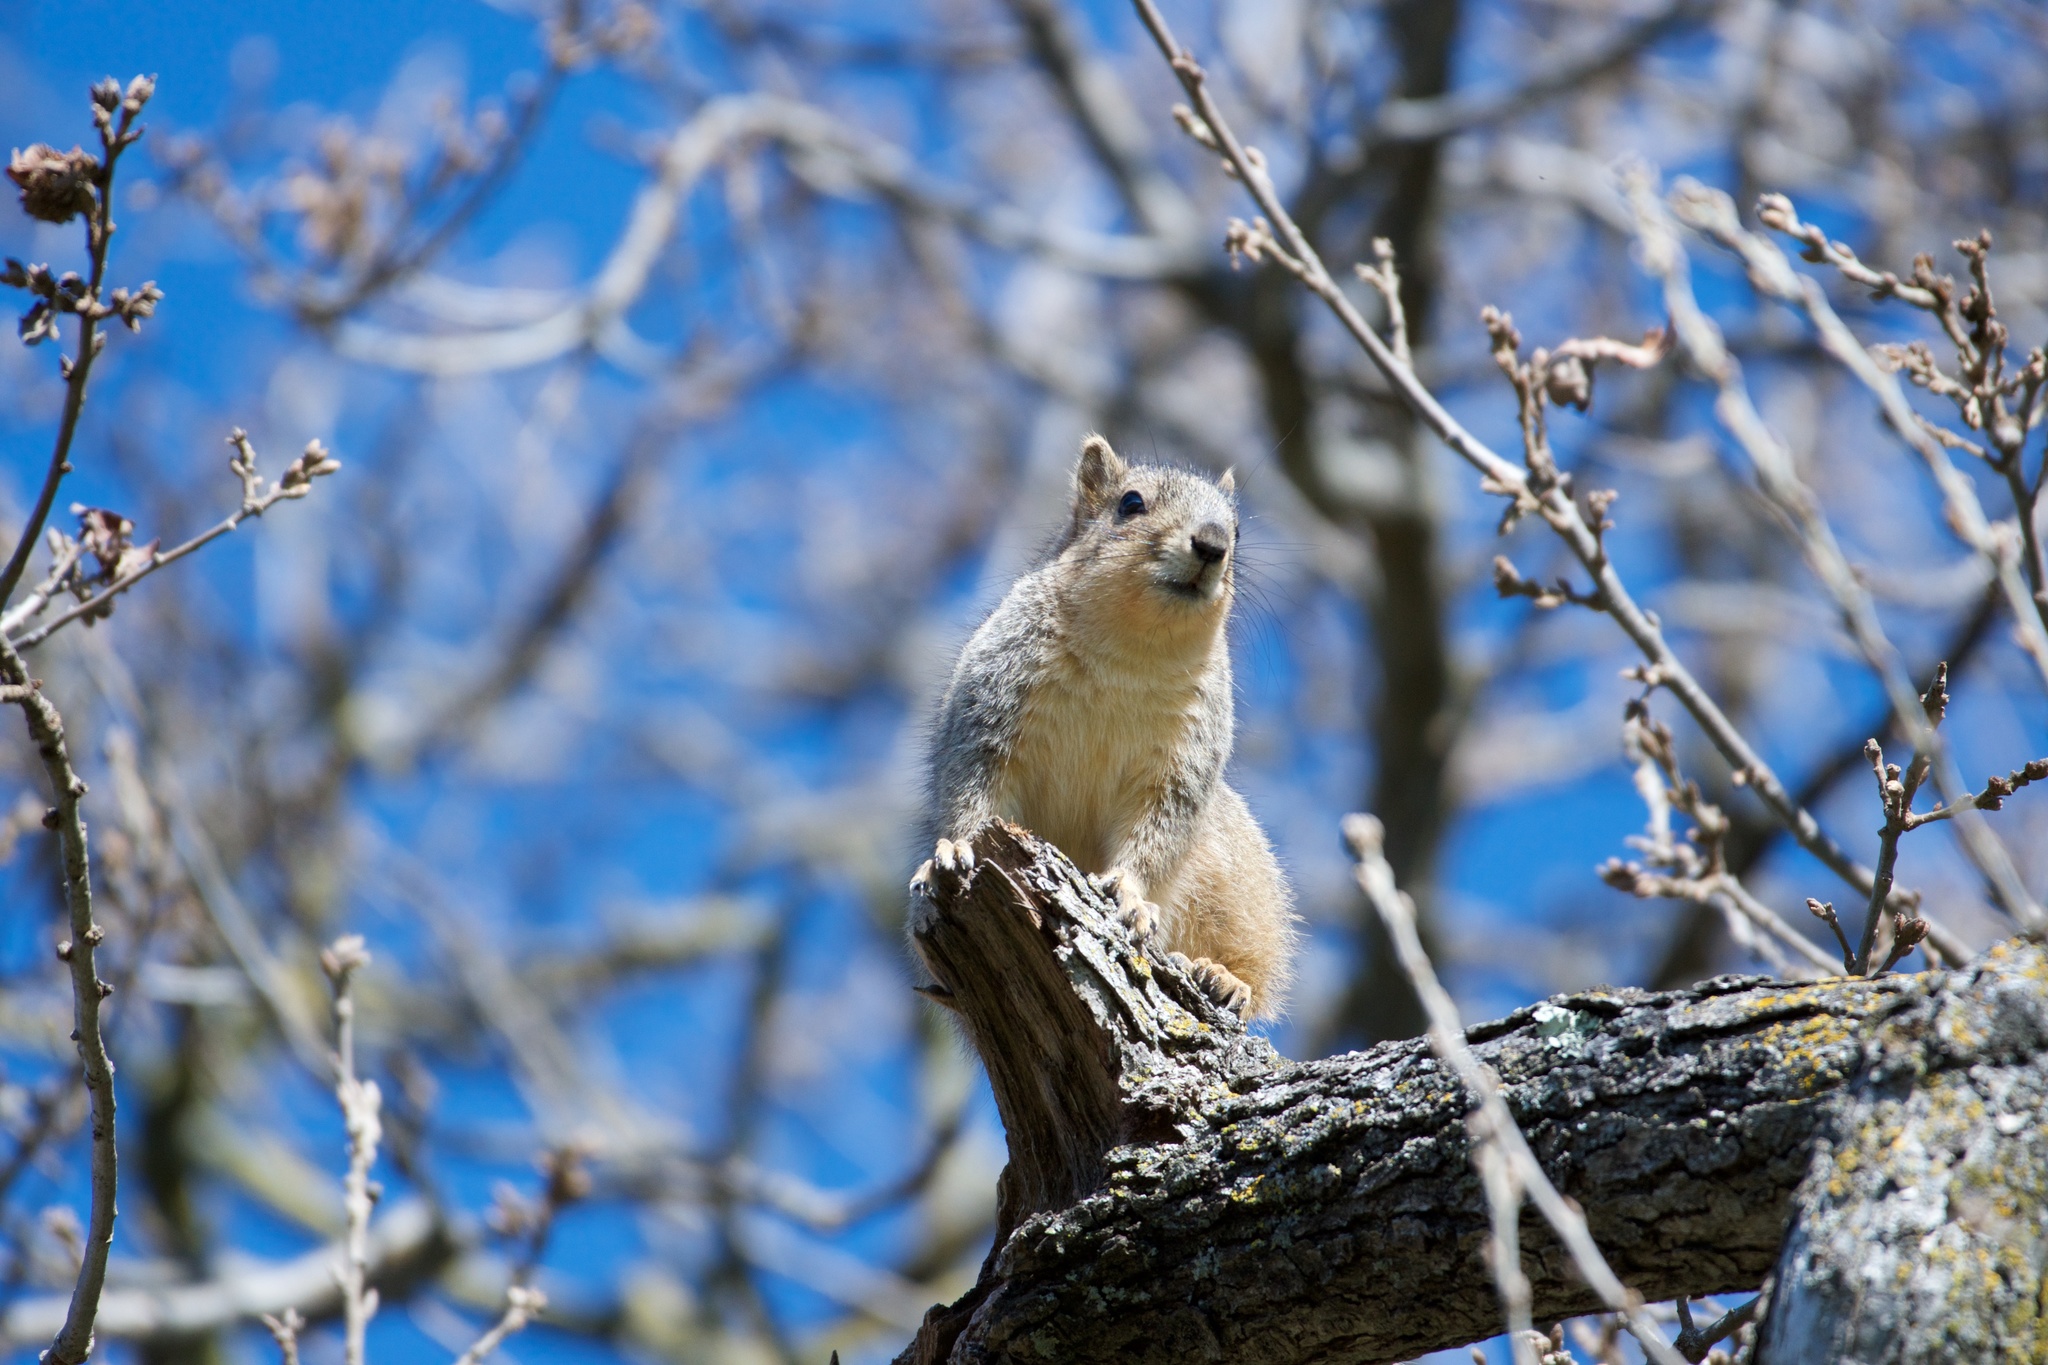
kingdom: Animalia
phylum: Chordata
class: Mammalia
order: Rodentia
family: Sciuridae
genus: Sciurus
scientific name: Sciurus niger
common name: Fox squirrel
